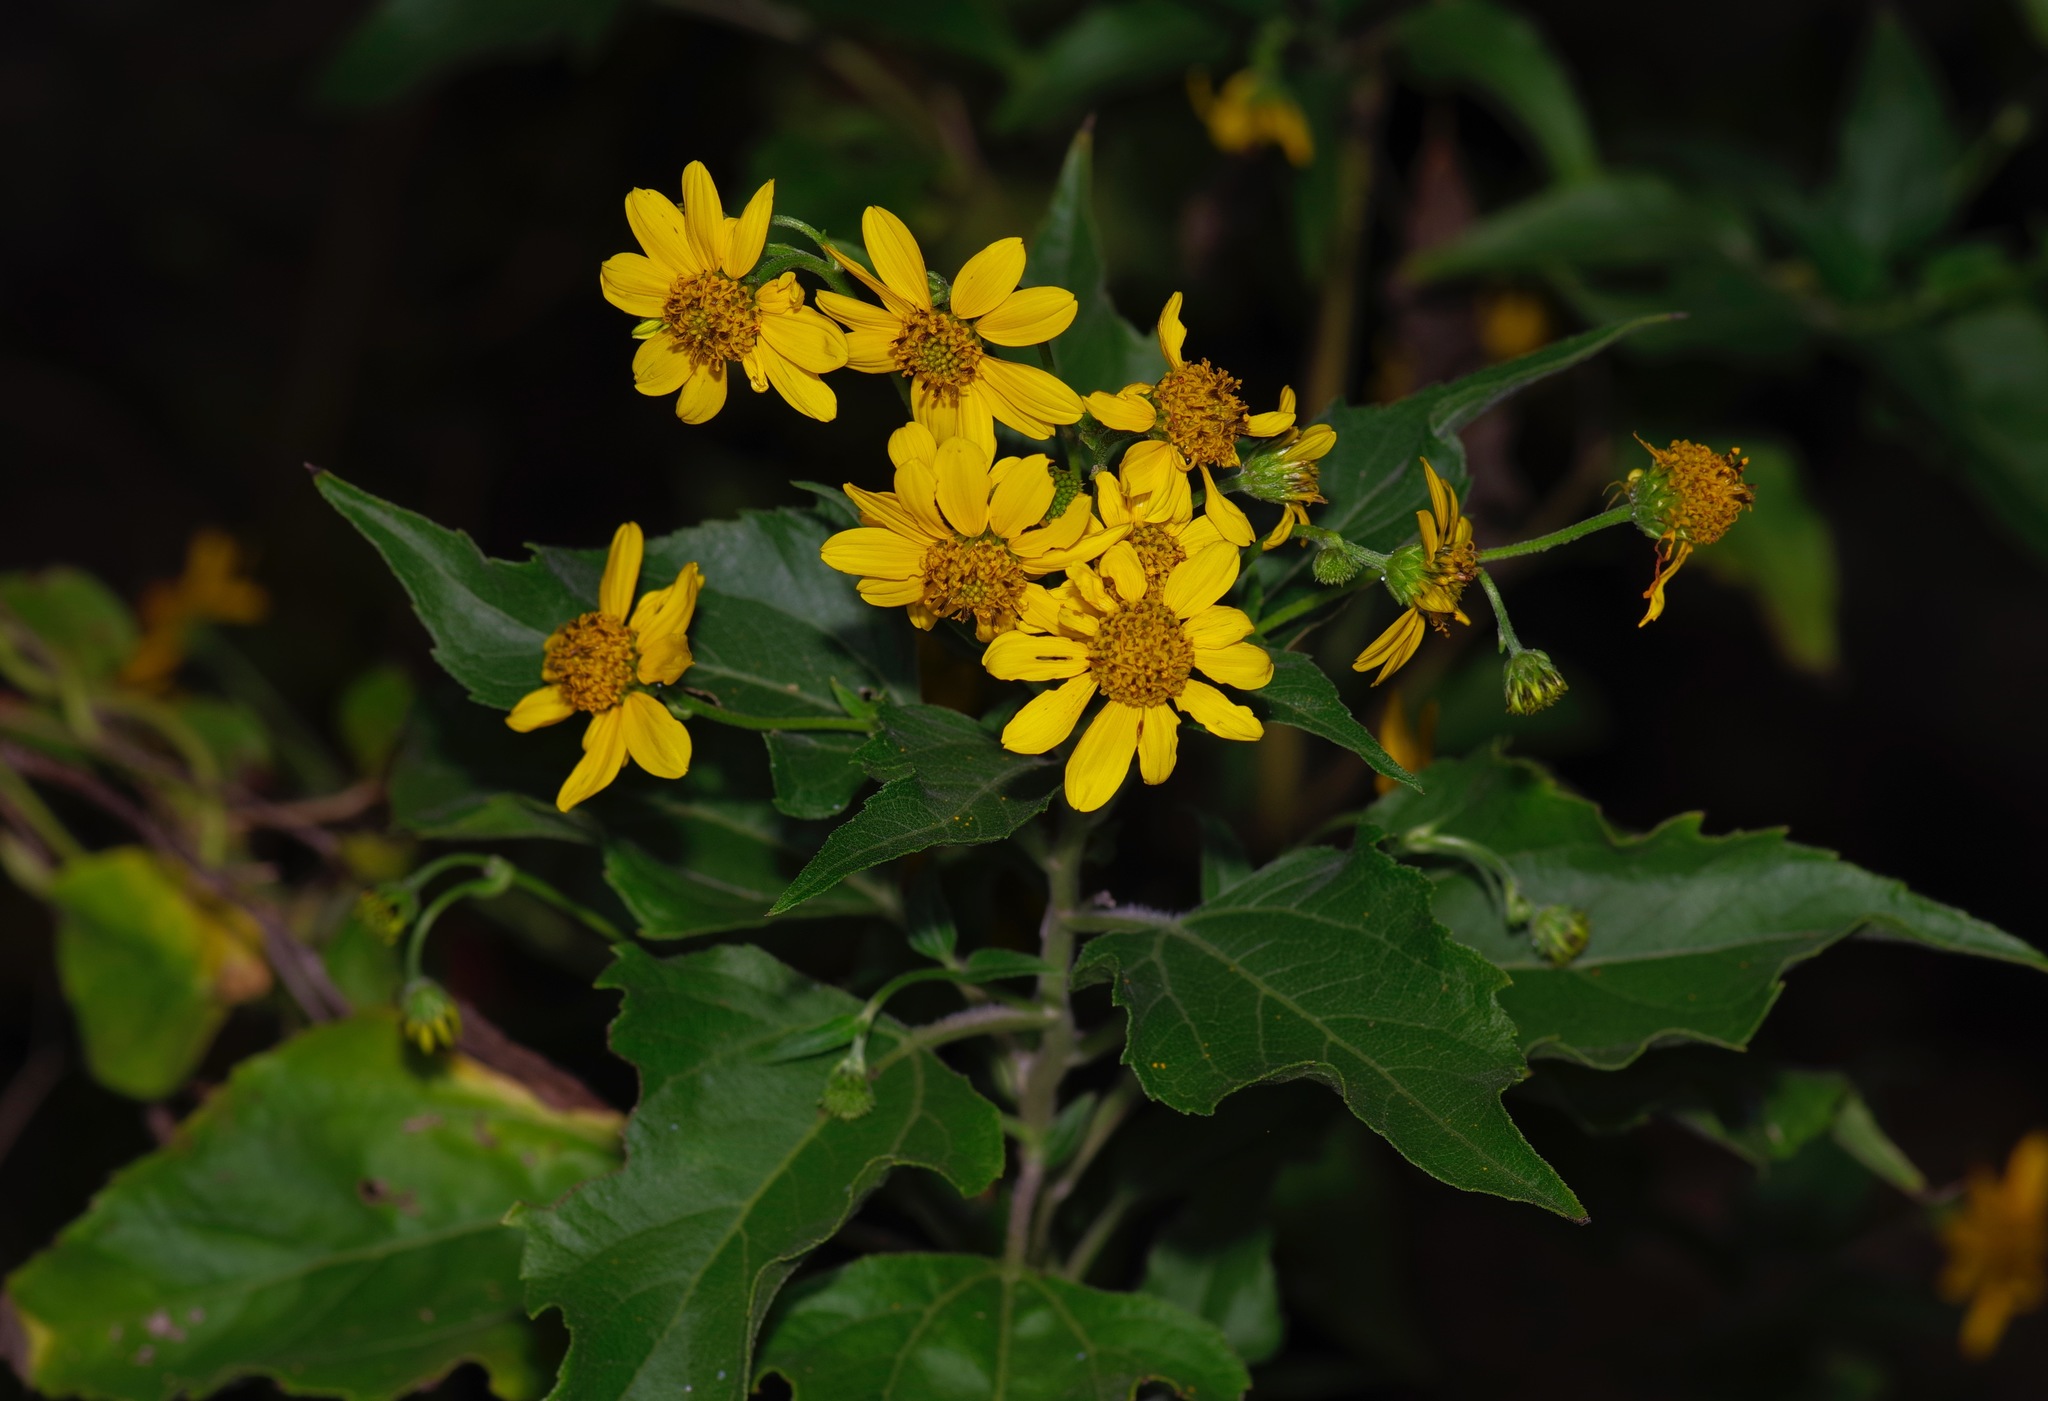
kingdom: Plantae
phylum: Tracheophyta
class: Magnoliopsida
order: Asterales
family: Asteraceae
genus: Viguiera
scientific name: Viguiera dentata
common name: Toothleaf
